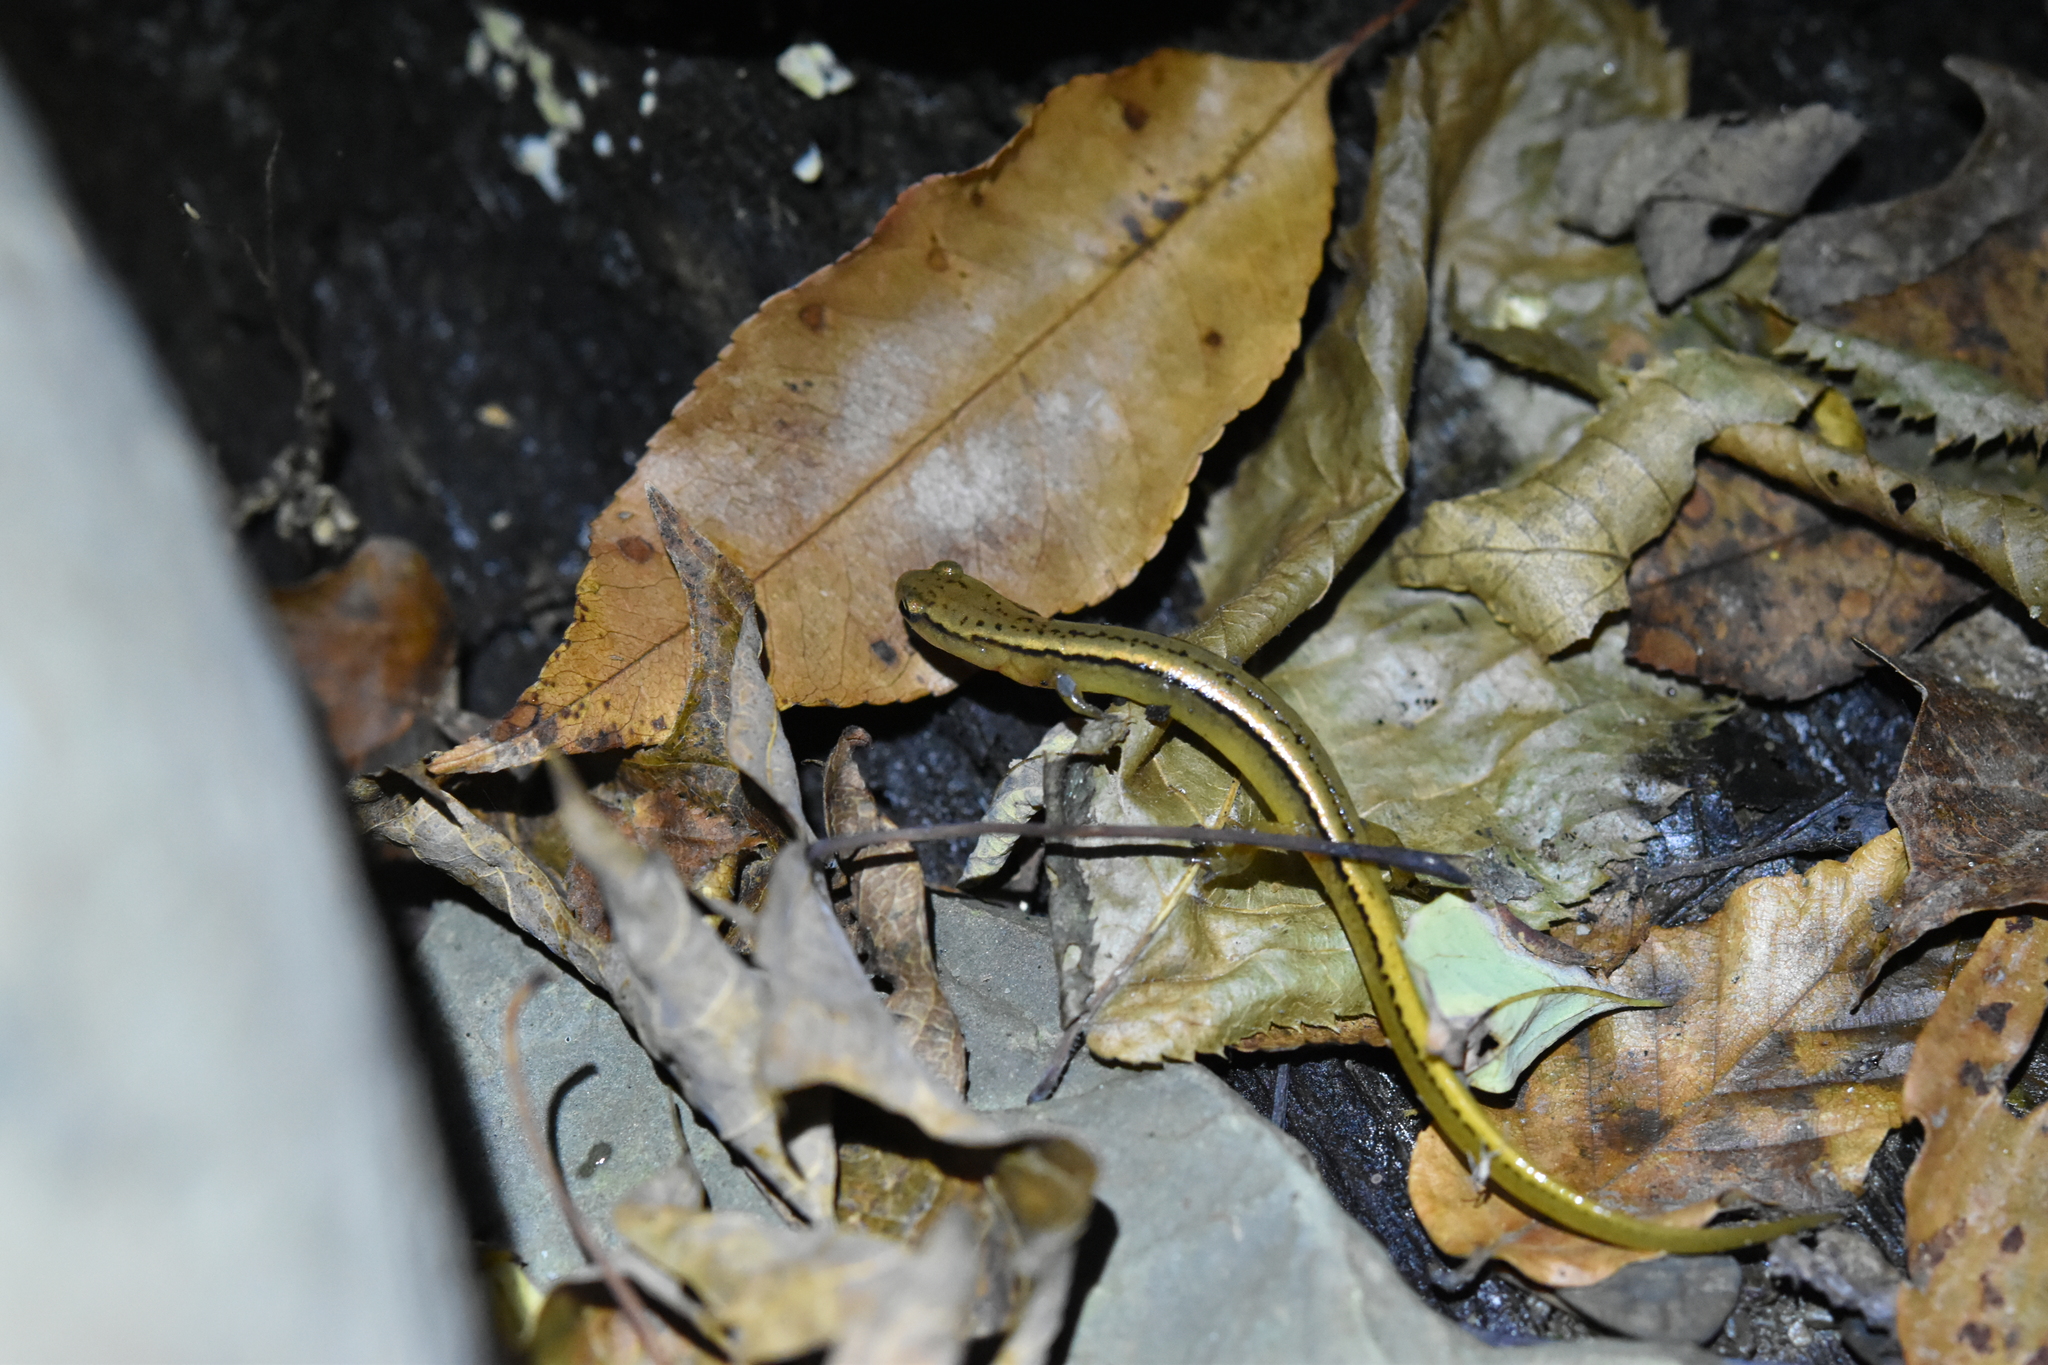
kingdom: Animalia
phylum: Chordata
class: Amphibia
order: Caudata
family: Plethodontidae
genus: Eurycea
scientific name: Eurycea bislineata
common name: Northern two-lined salamander
